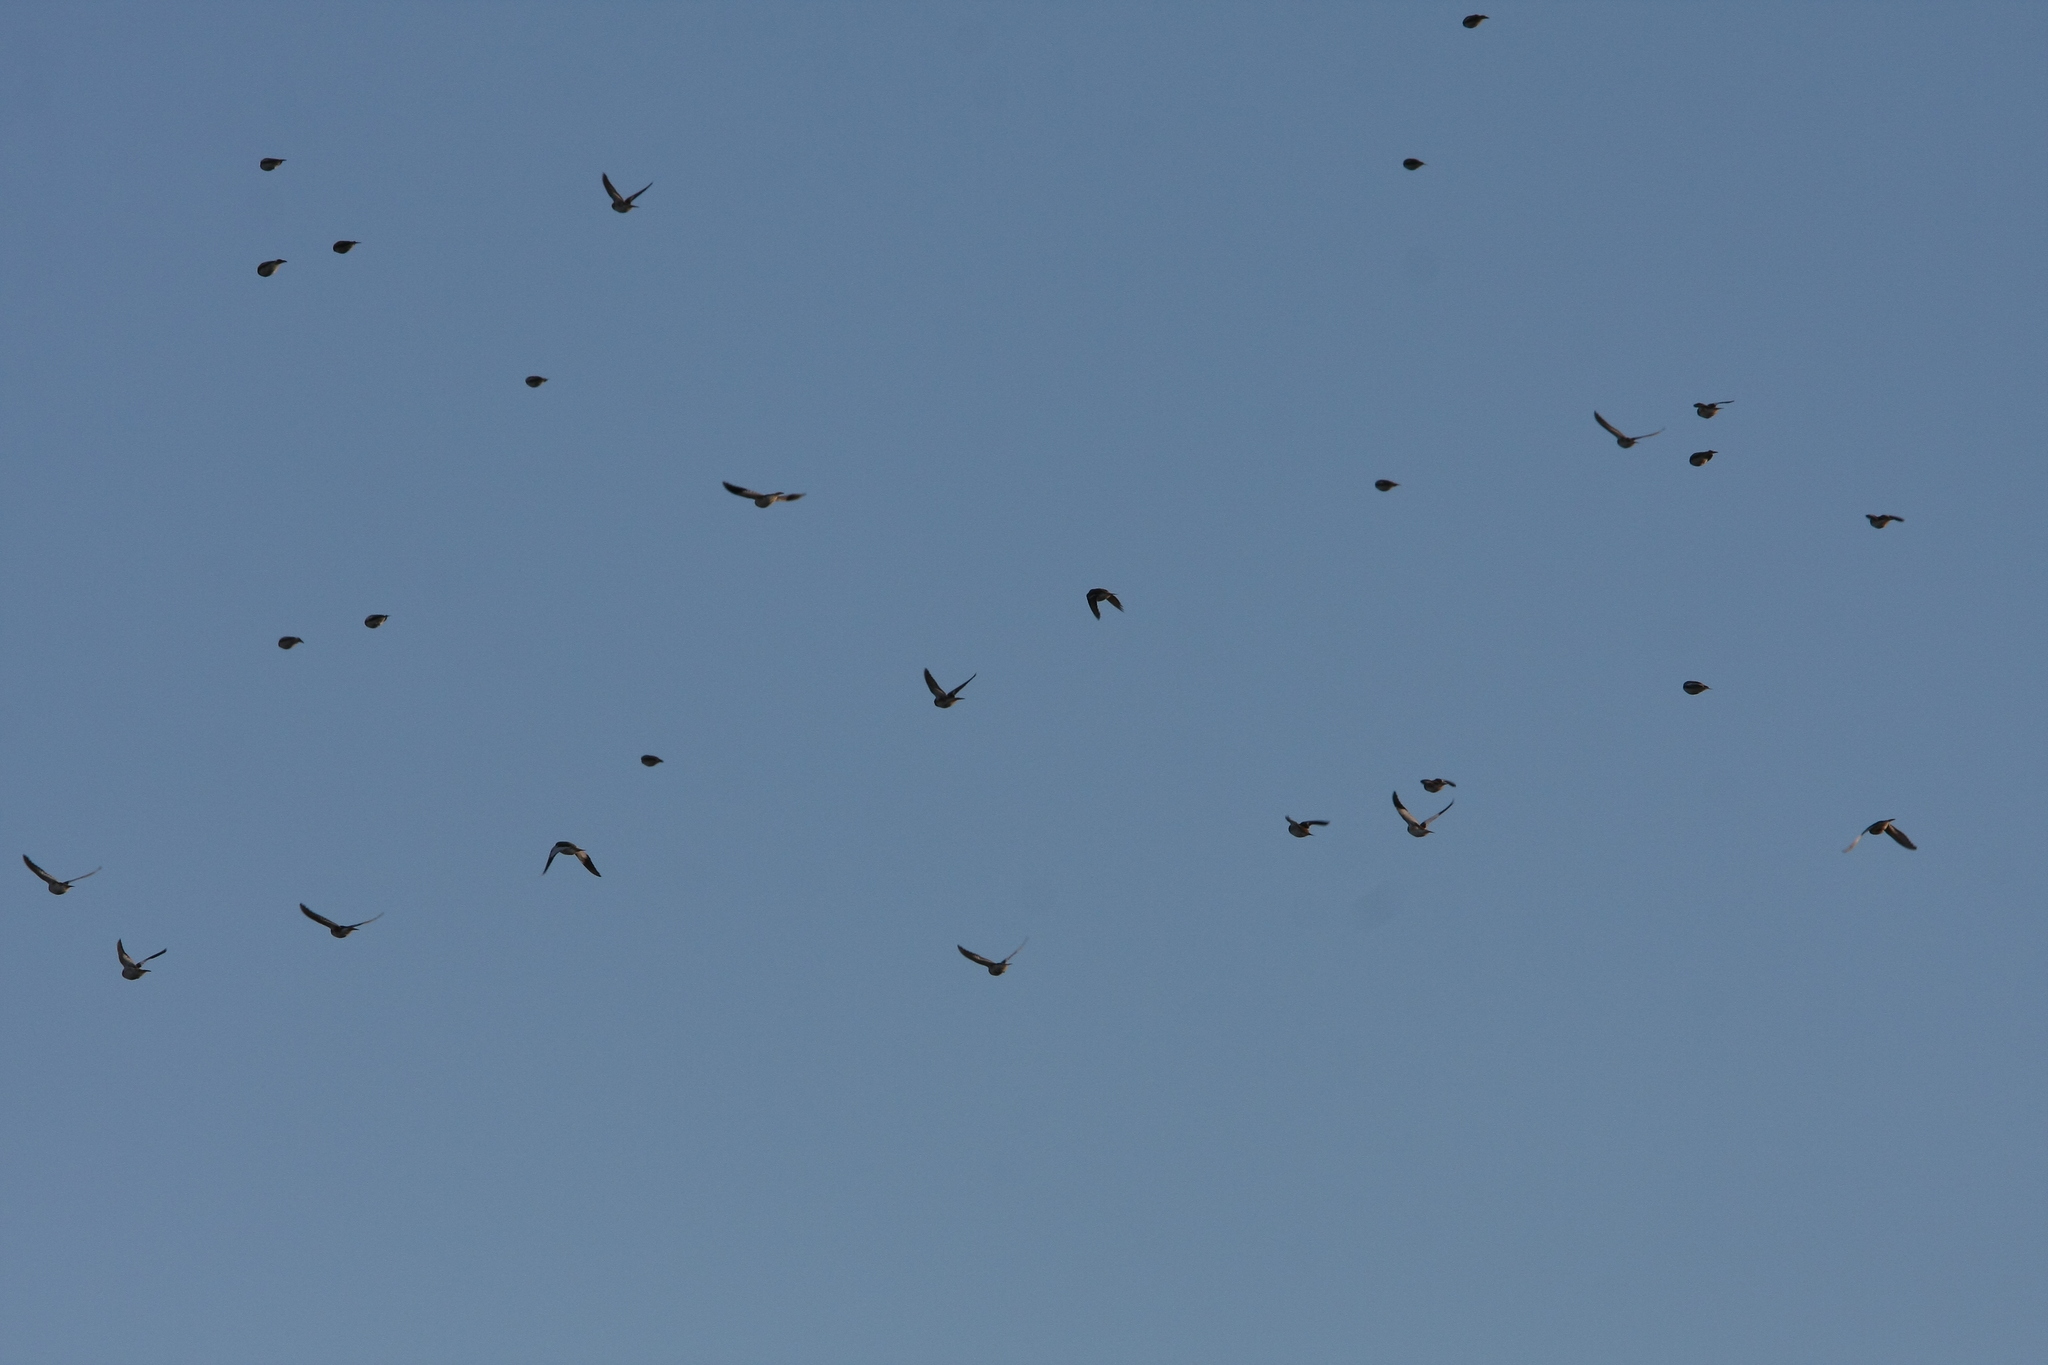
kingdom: Animalia
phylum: Chordata
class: Aves
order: Passeriformes
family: Calcariidae
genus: Plectrophenax
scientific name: Plectrophenax nivalis
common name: Snow bunting
